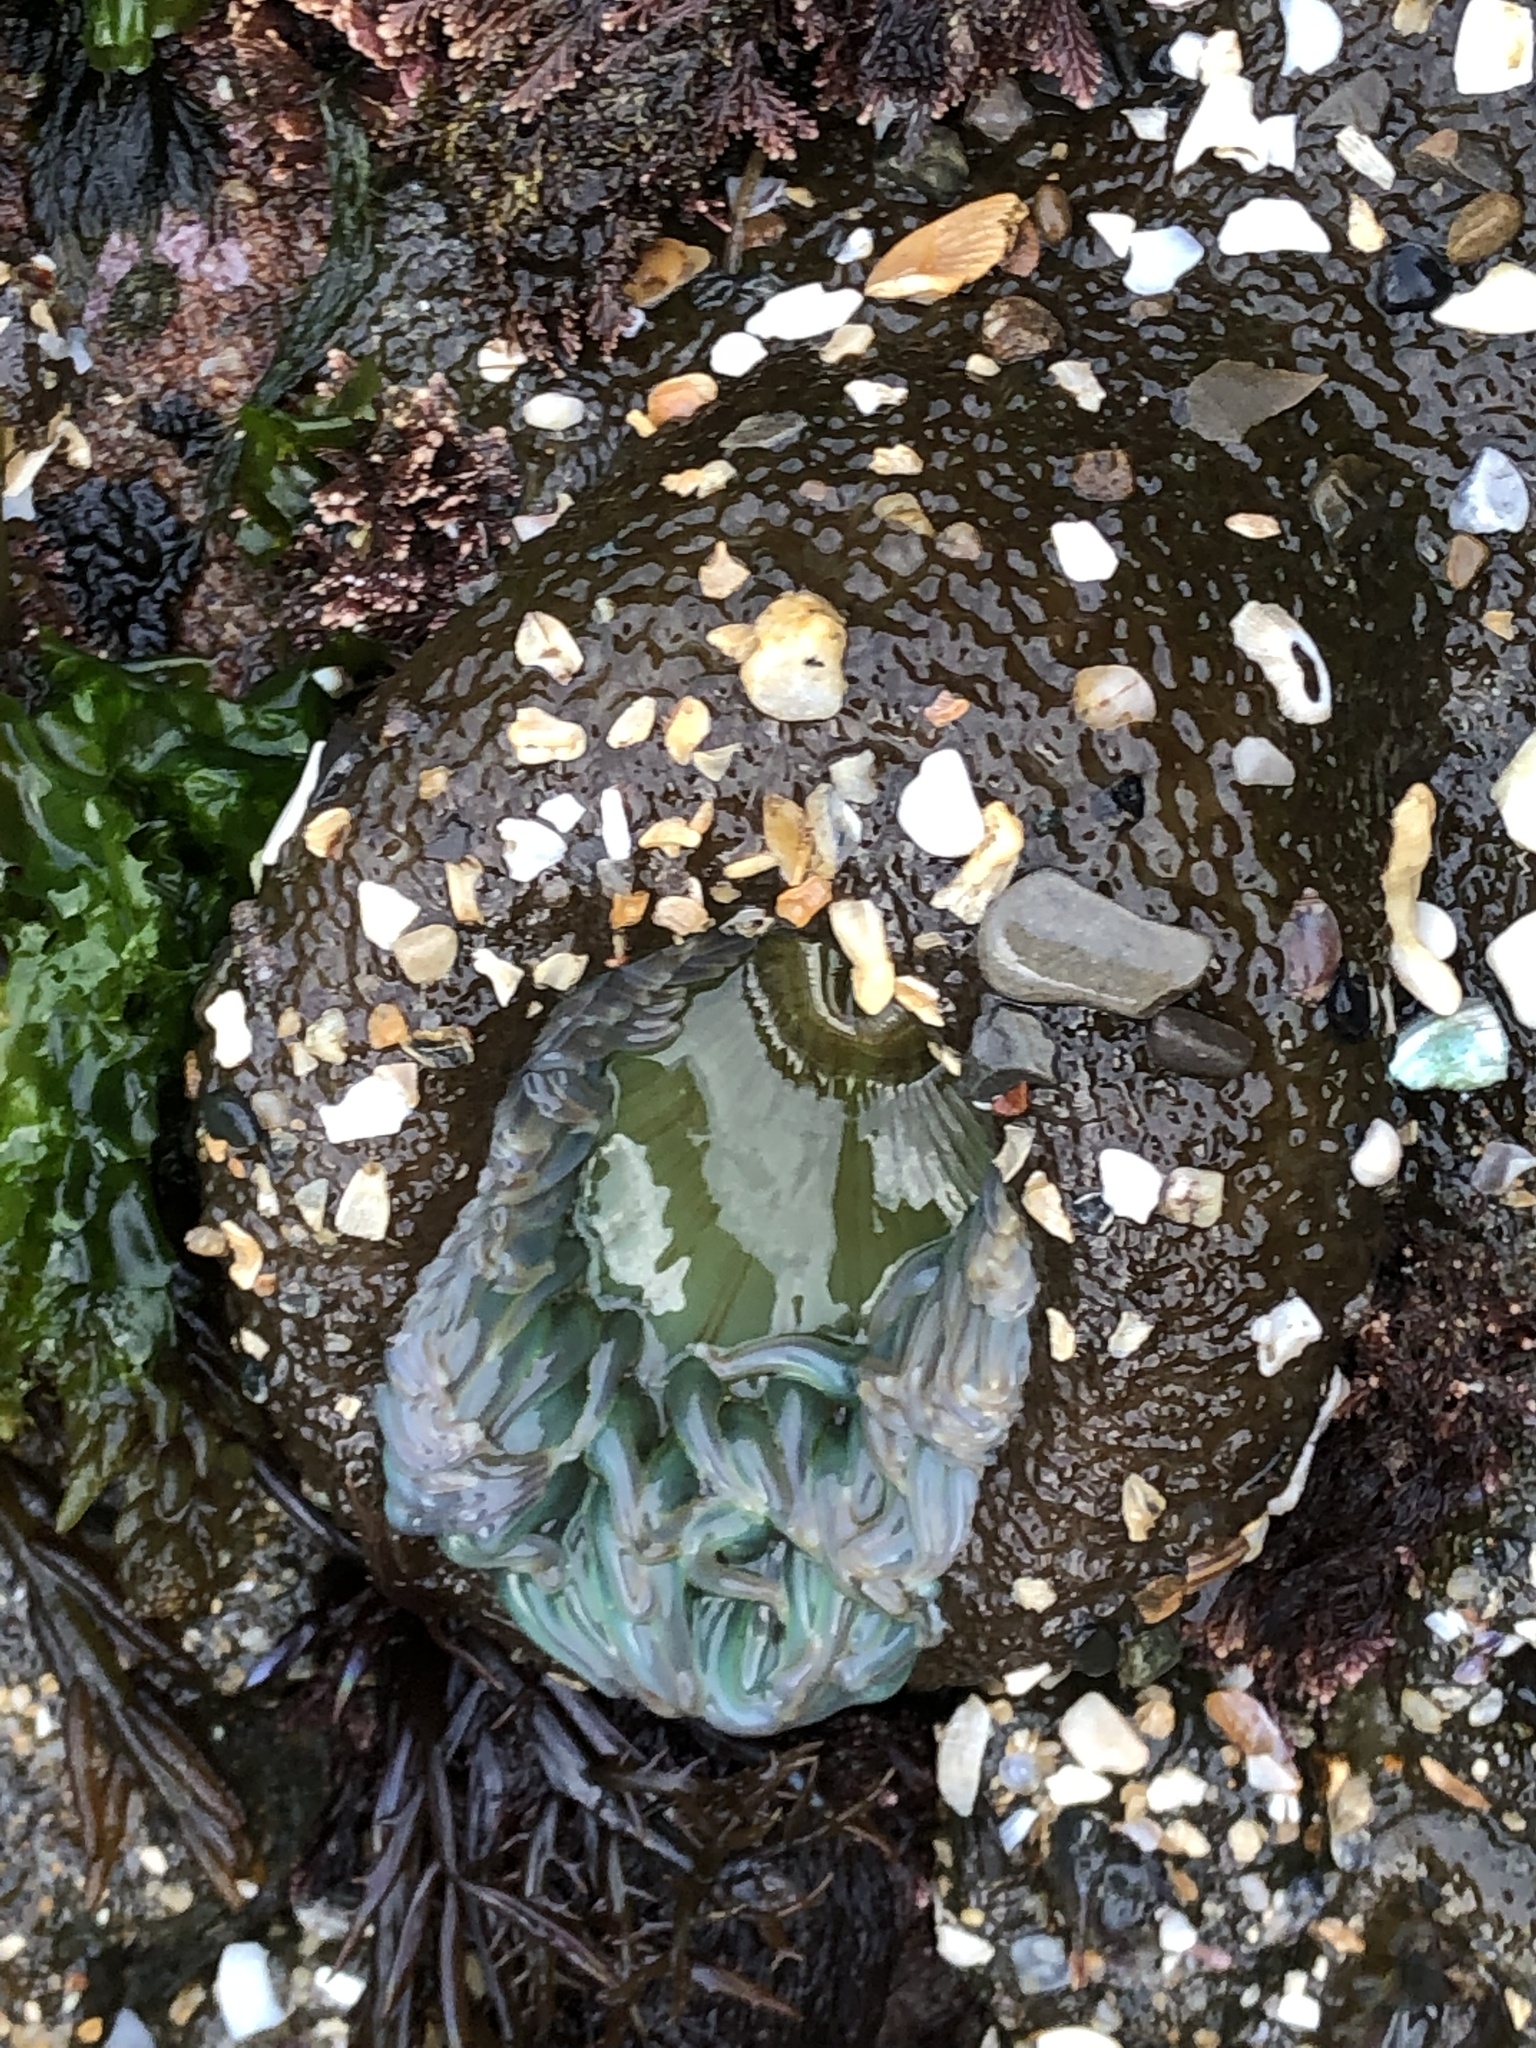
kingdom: Animalia
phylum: Cnidaria
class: Anthozoa
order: Actiniaria
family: Actiniidae
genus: Anthopleura
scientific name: Anthopleura xanthogrammica
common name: Giant green anemone
